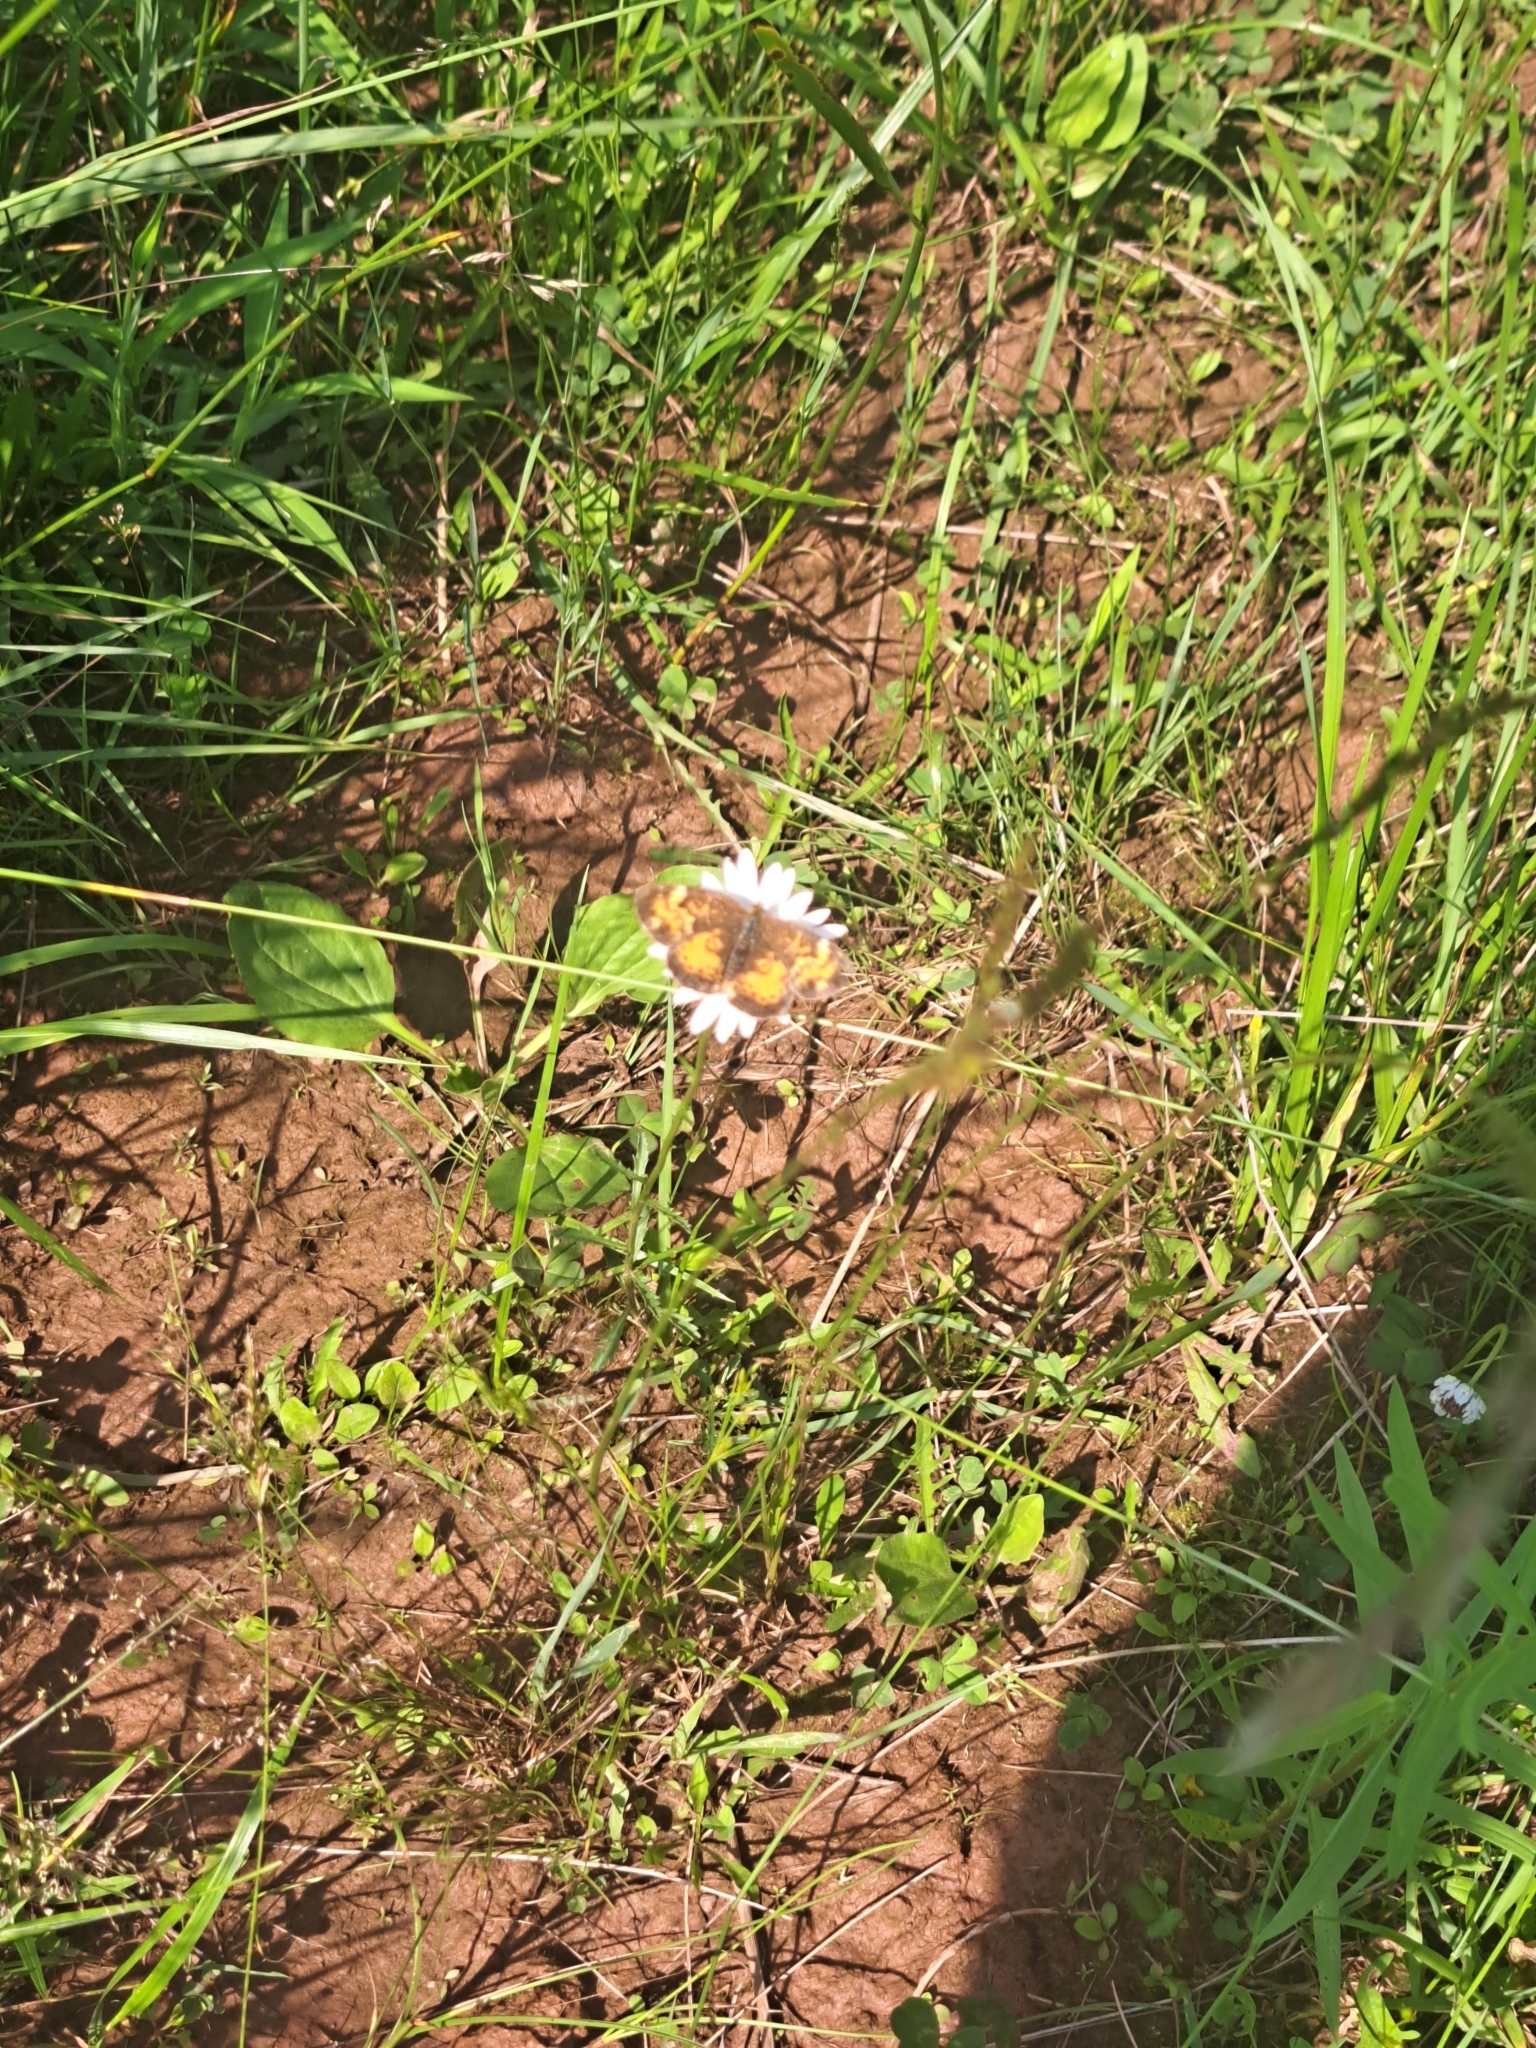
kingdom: Animalia
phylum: Arthropoda
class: Insecta
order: Lepidoptera
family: Nymphalidae
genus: Phyciodes
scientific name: Phyciodes tharos
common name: Pearl crescent
